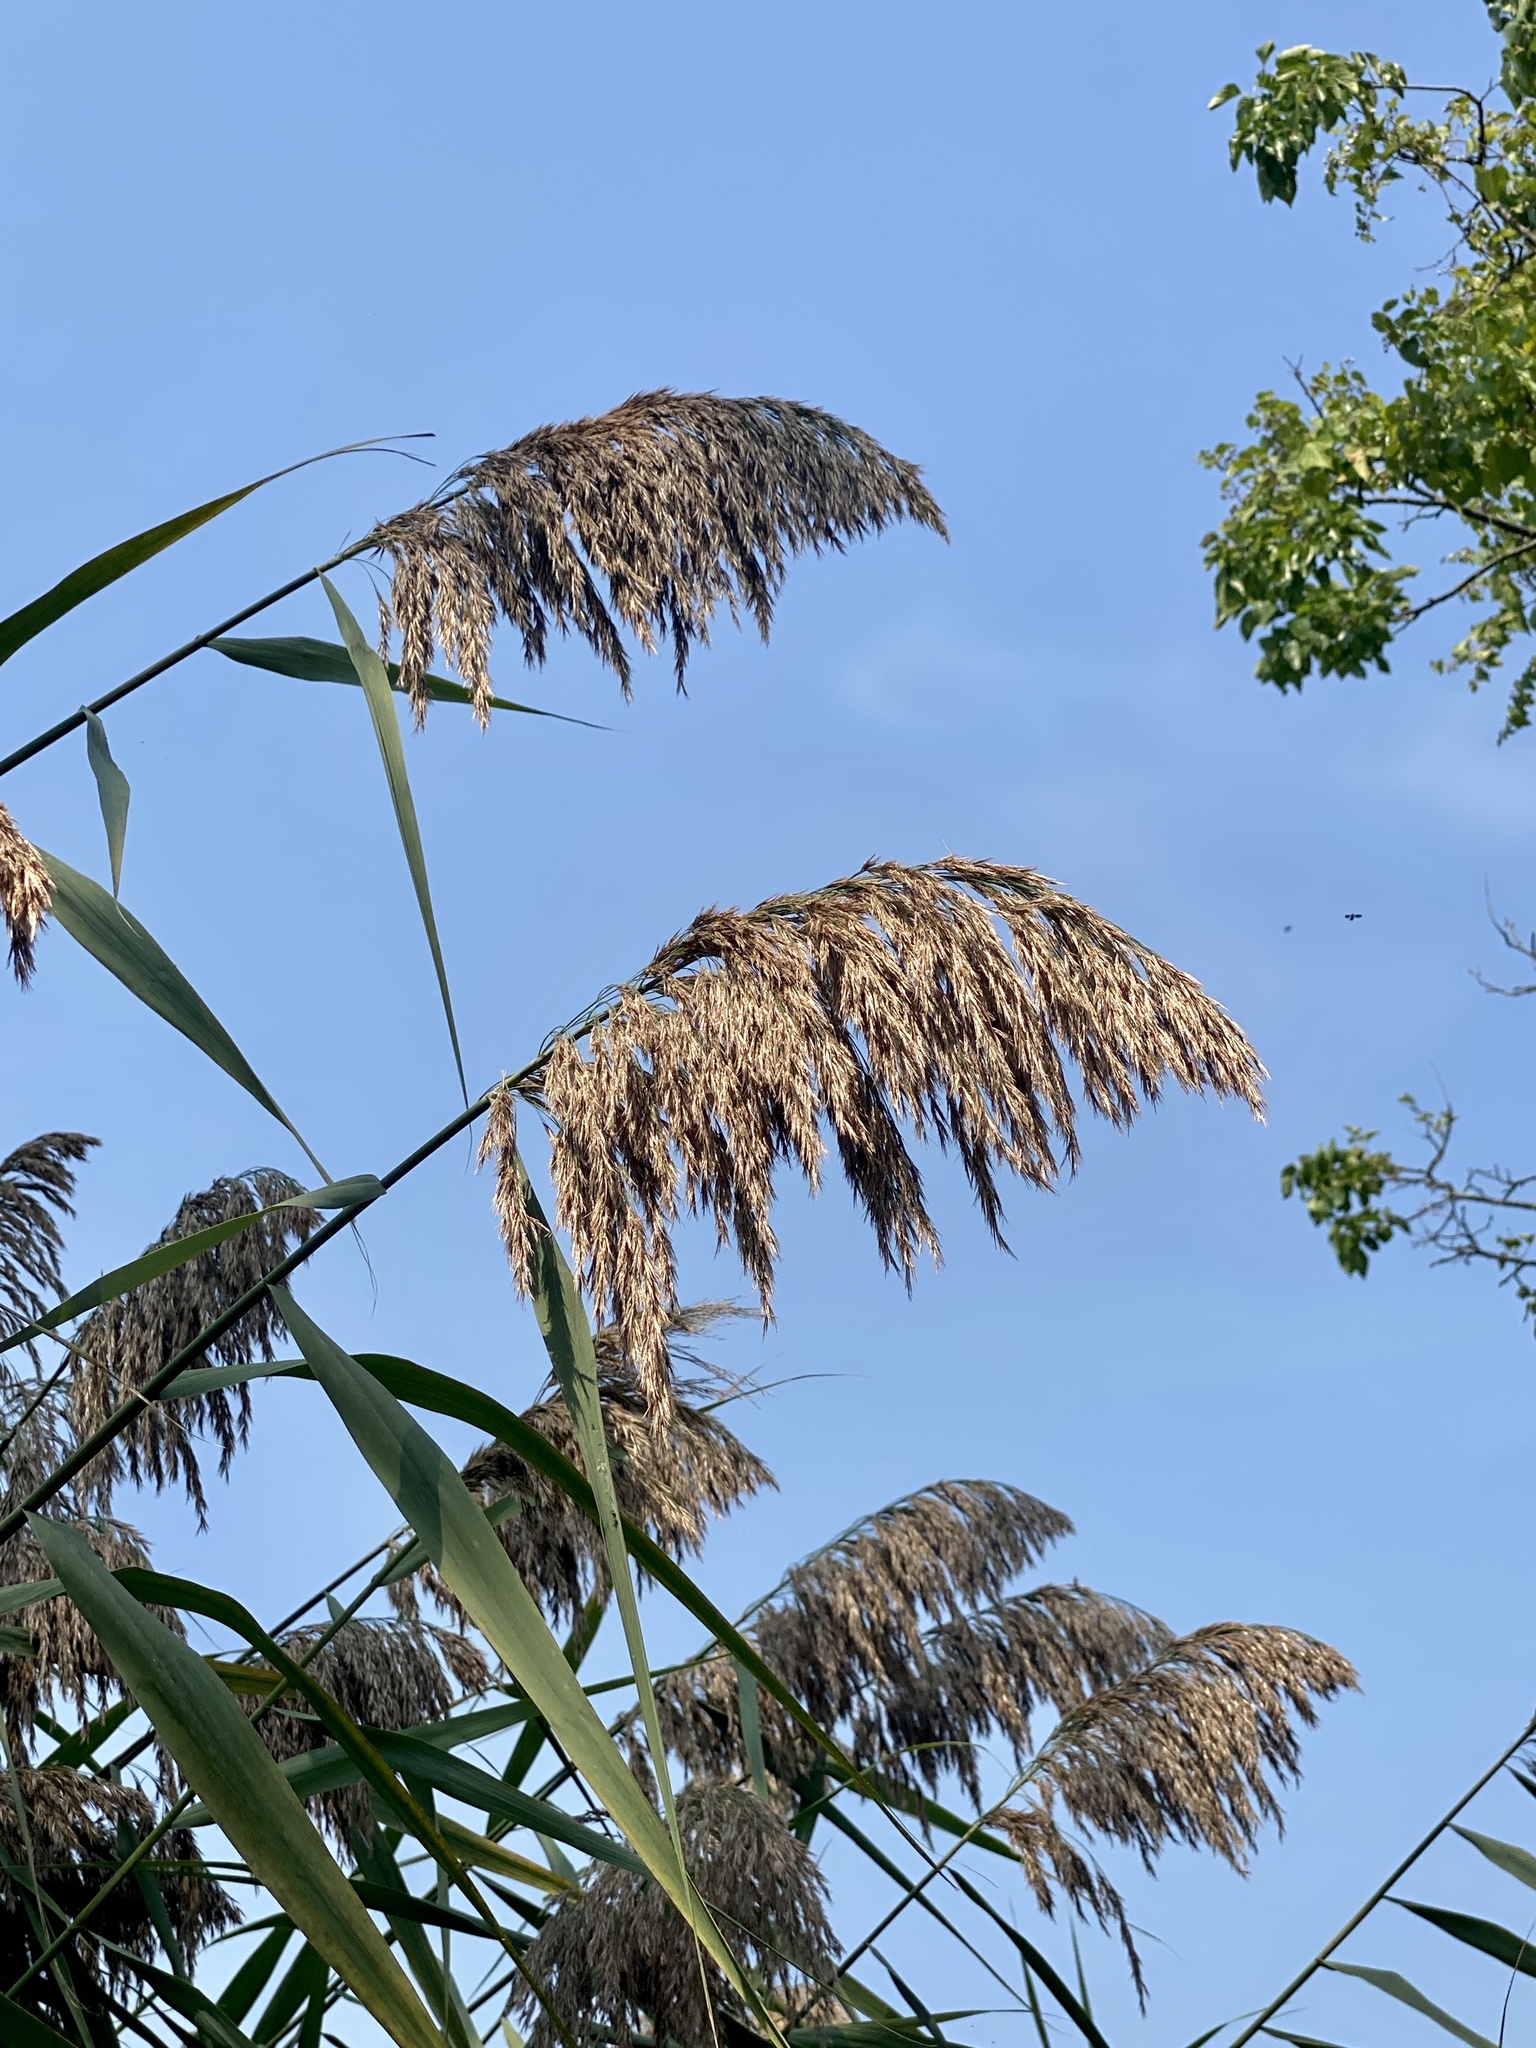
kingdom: Plantae
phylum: Tracheophyta
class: Liliopsida
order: Poales
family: Poaceae
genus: Phragmites
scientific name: Phragmites australis
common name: Common reed
